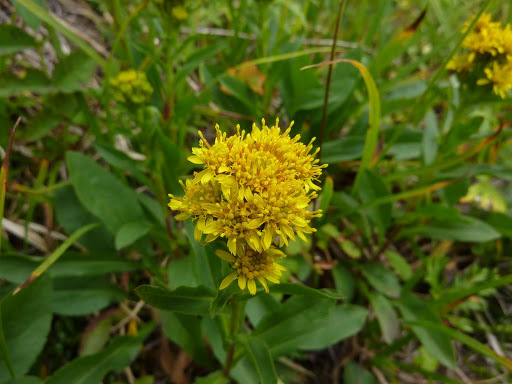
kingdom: Plantae
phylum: Tracheophyta
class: Magnoliopsida
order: Asterales
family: Asteraceae
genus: Solidago
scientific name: Solidago multiradiata
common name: Northern goldenrod
